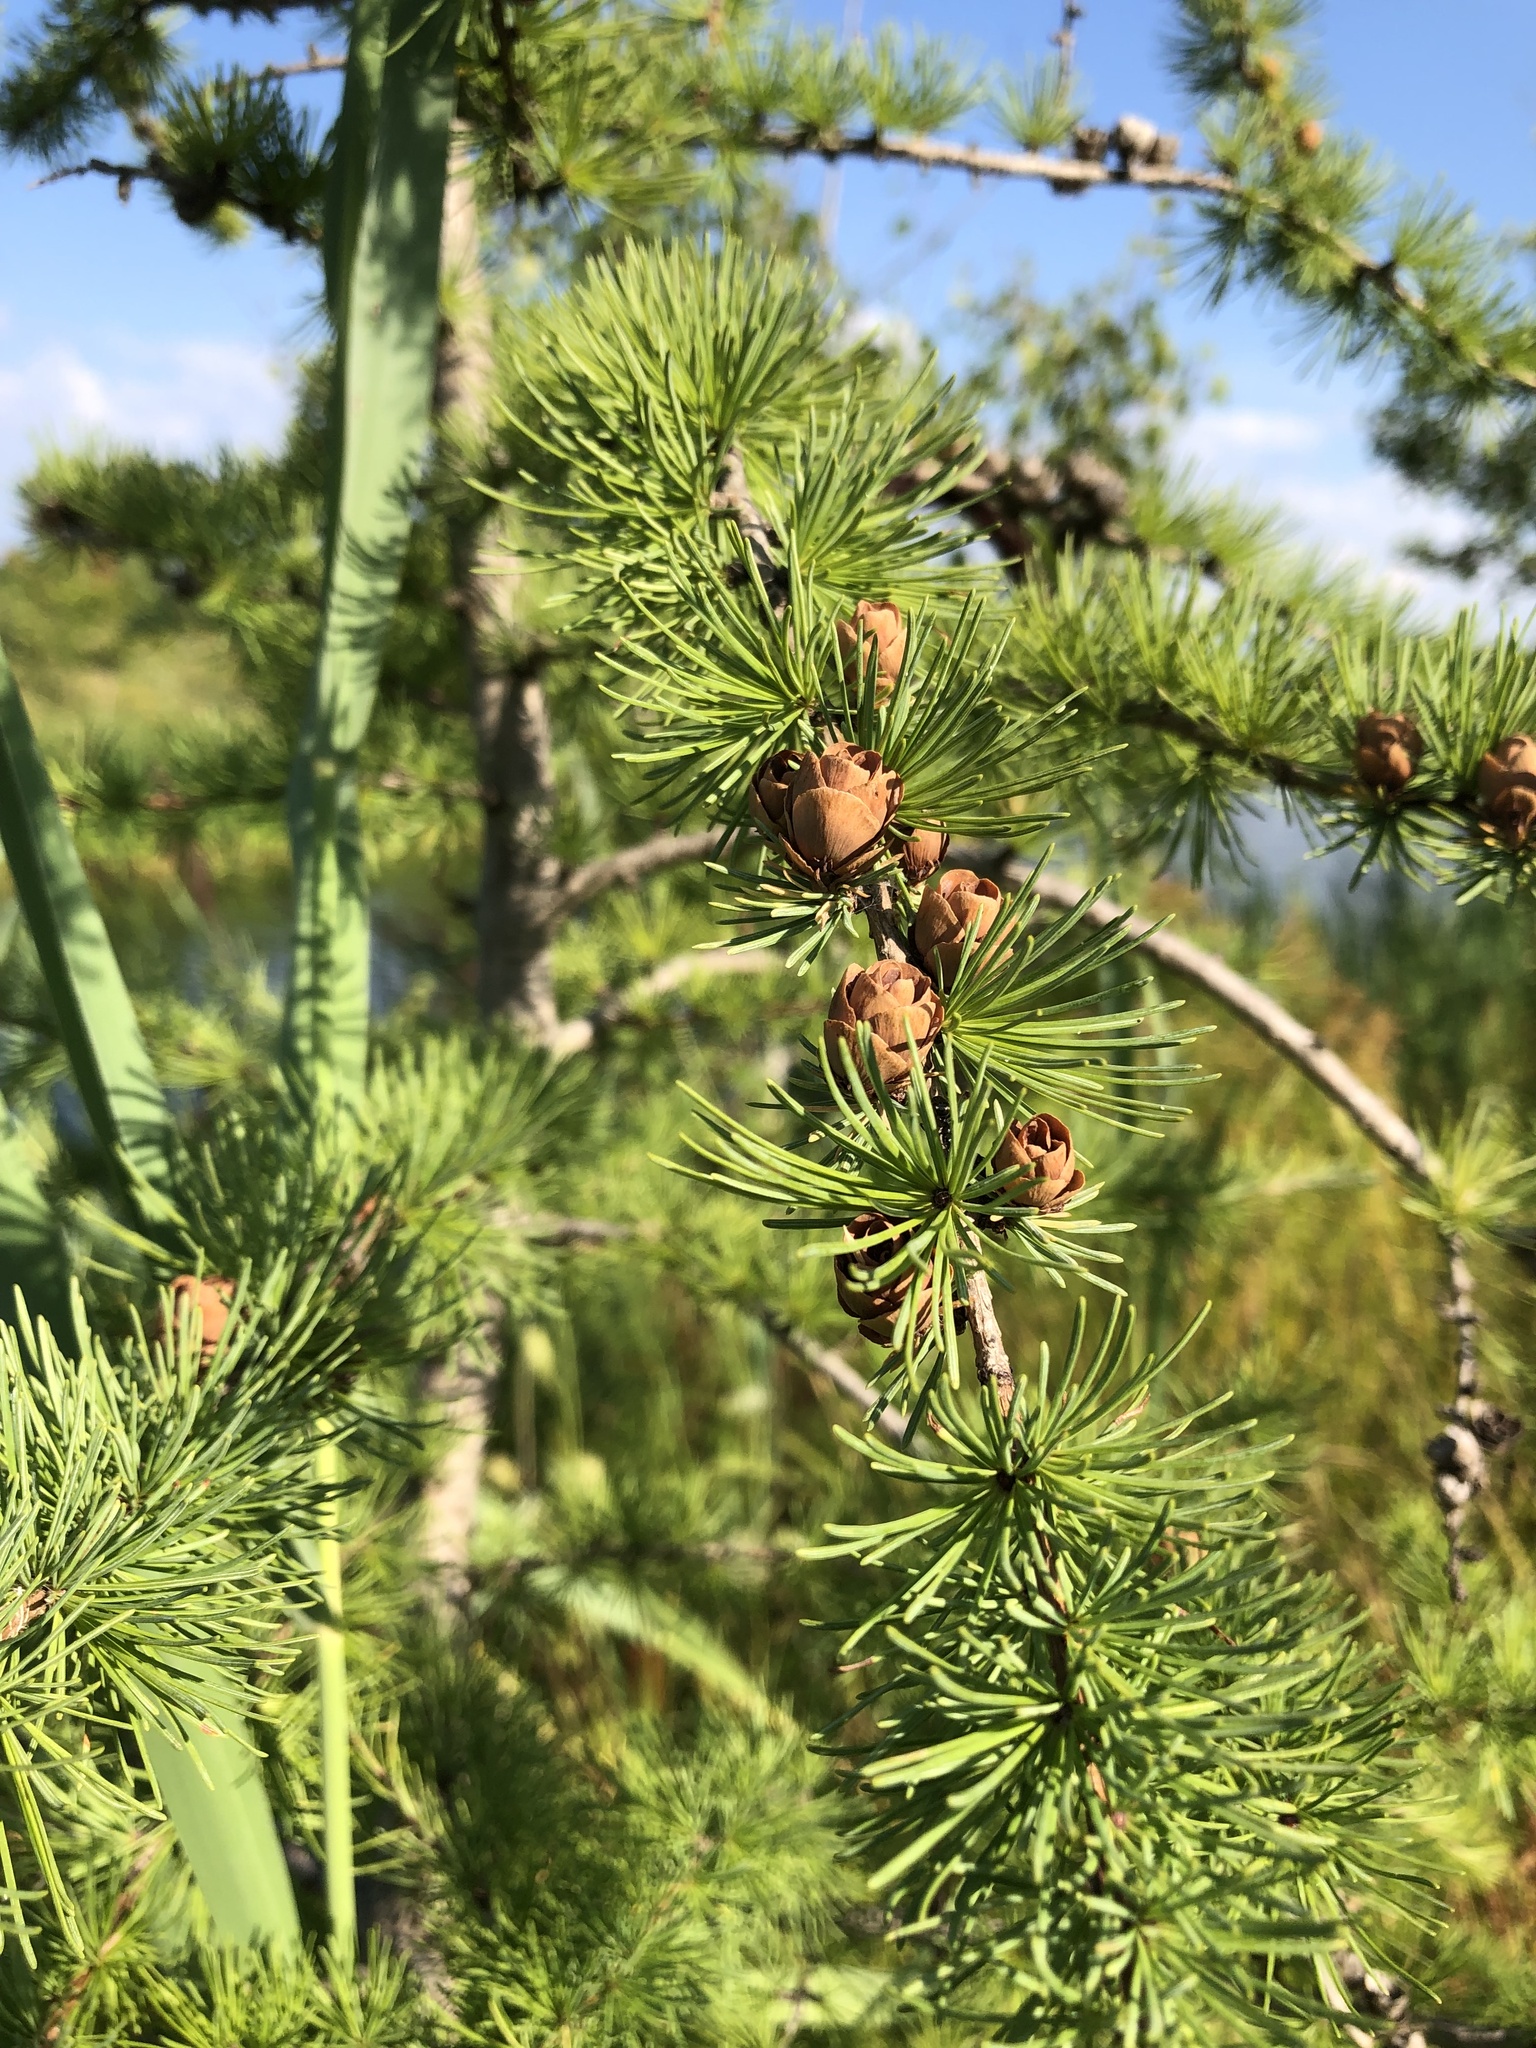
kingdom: Plantae
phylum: Tracheophyta
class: Pinopsida
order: Pinales
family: Pinaceae
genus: Larix
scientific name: Larix laricina
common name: American larch
